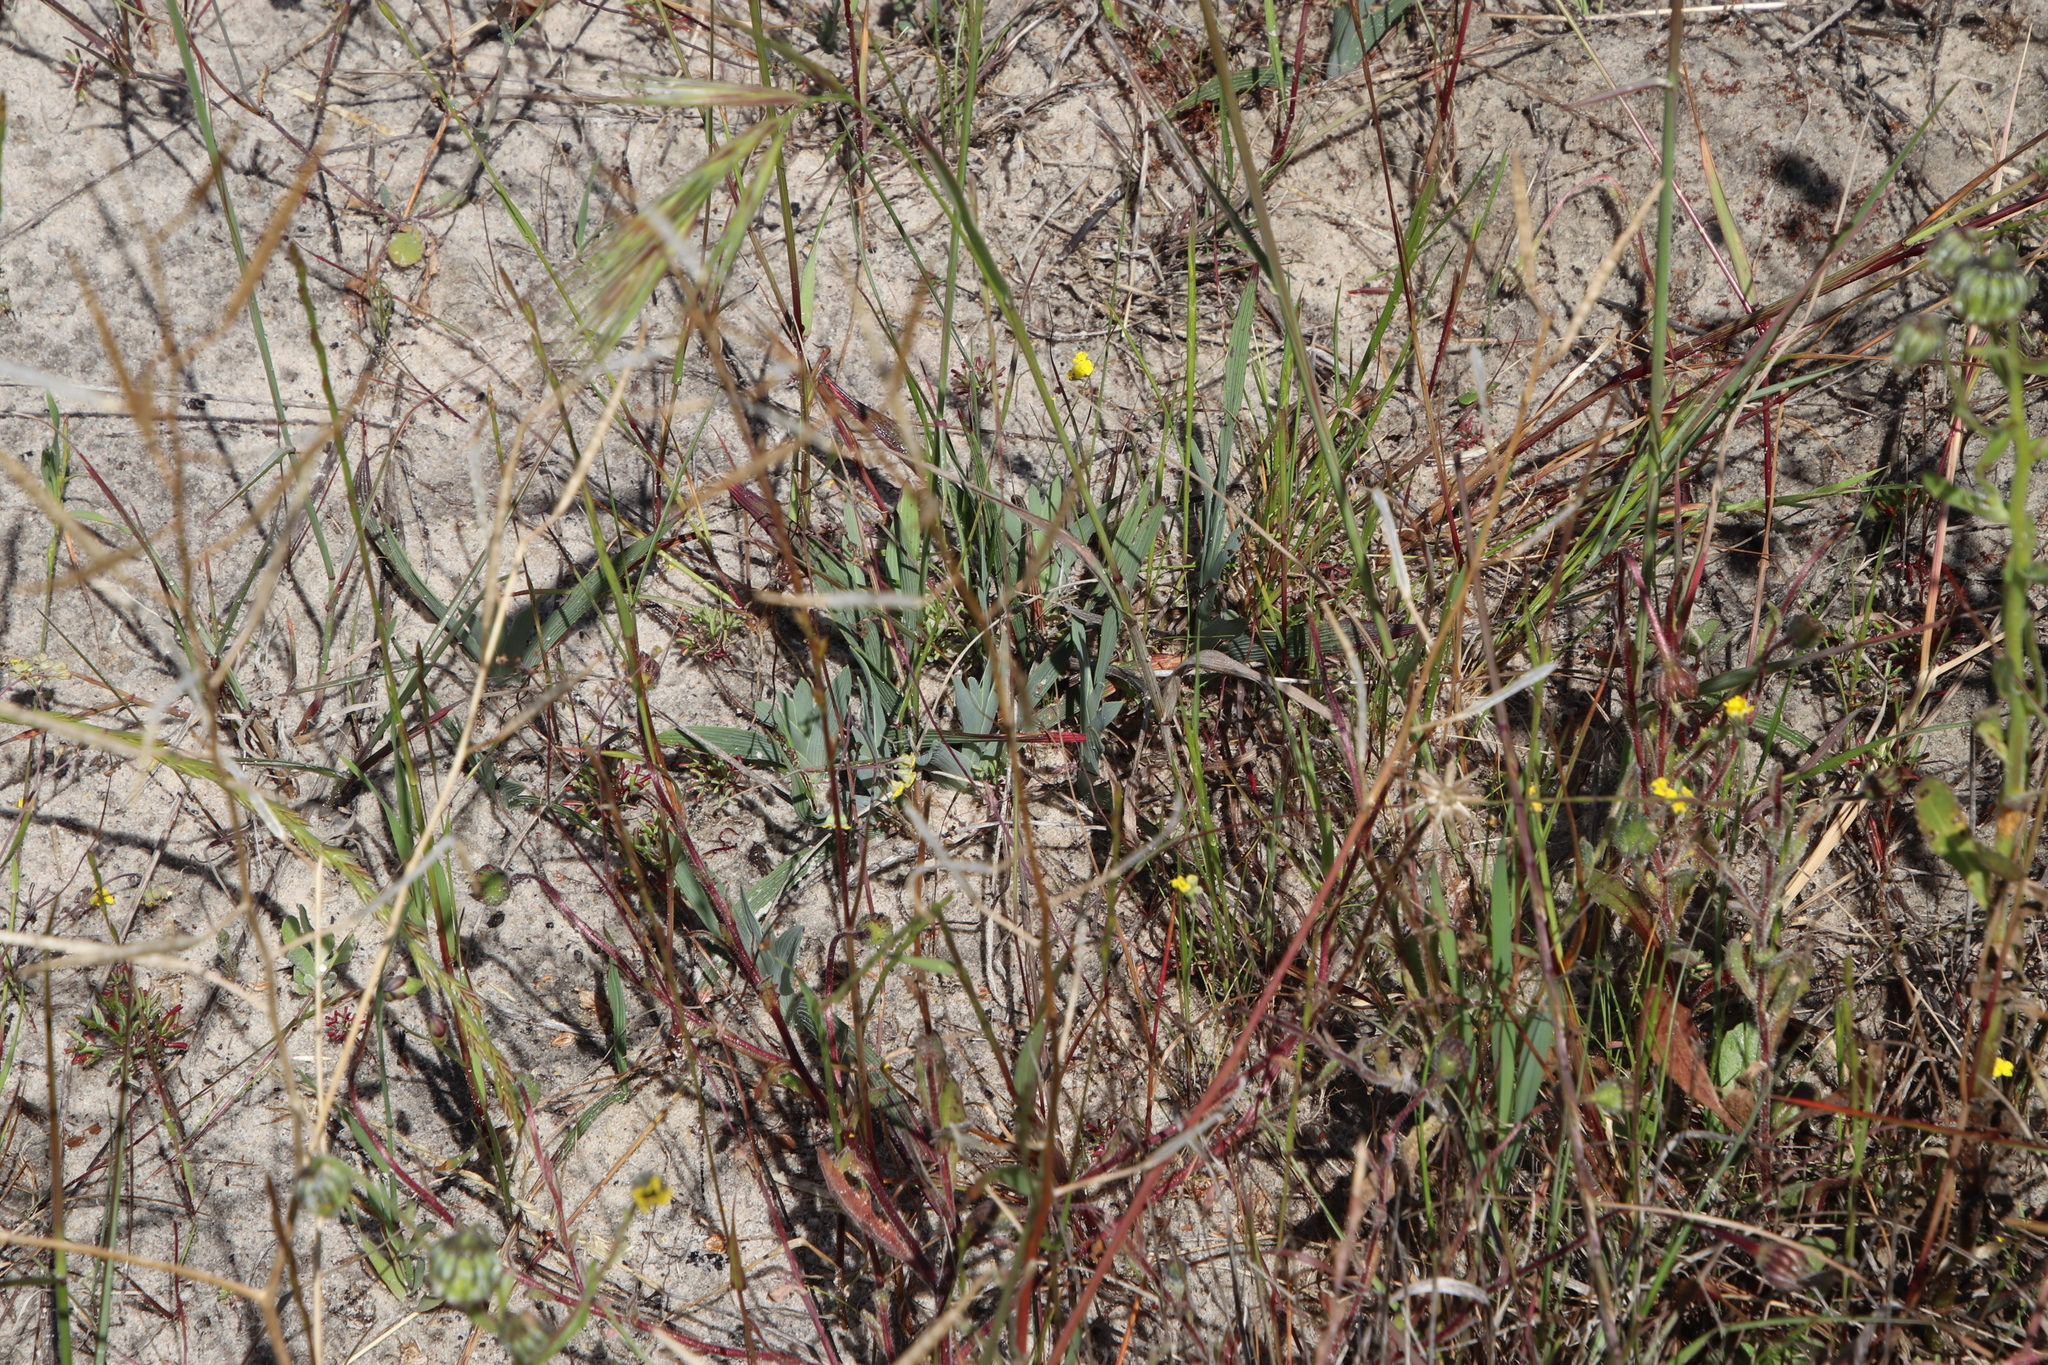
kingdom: Plantae
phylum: Tracheophyta
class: Liliopsida
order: Asparagales
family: Iridaceae
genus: Lapeirousia
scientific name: Lapeirousia anceps
